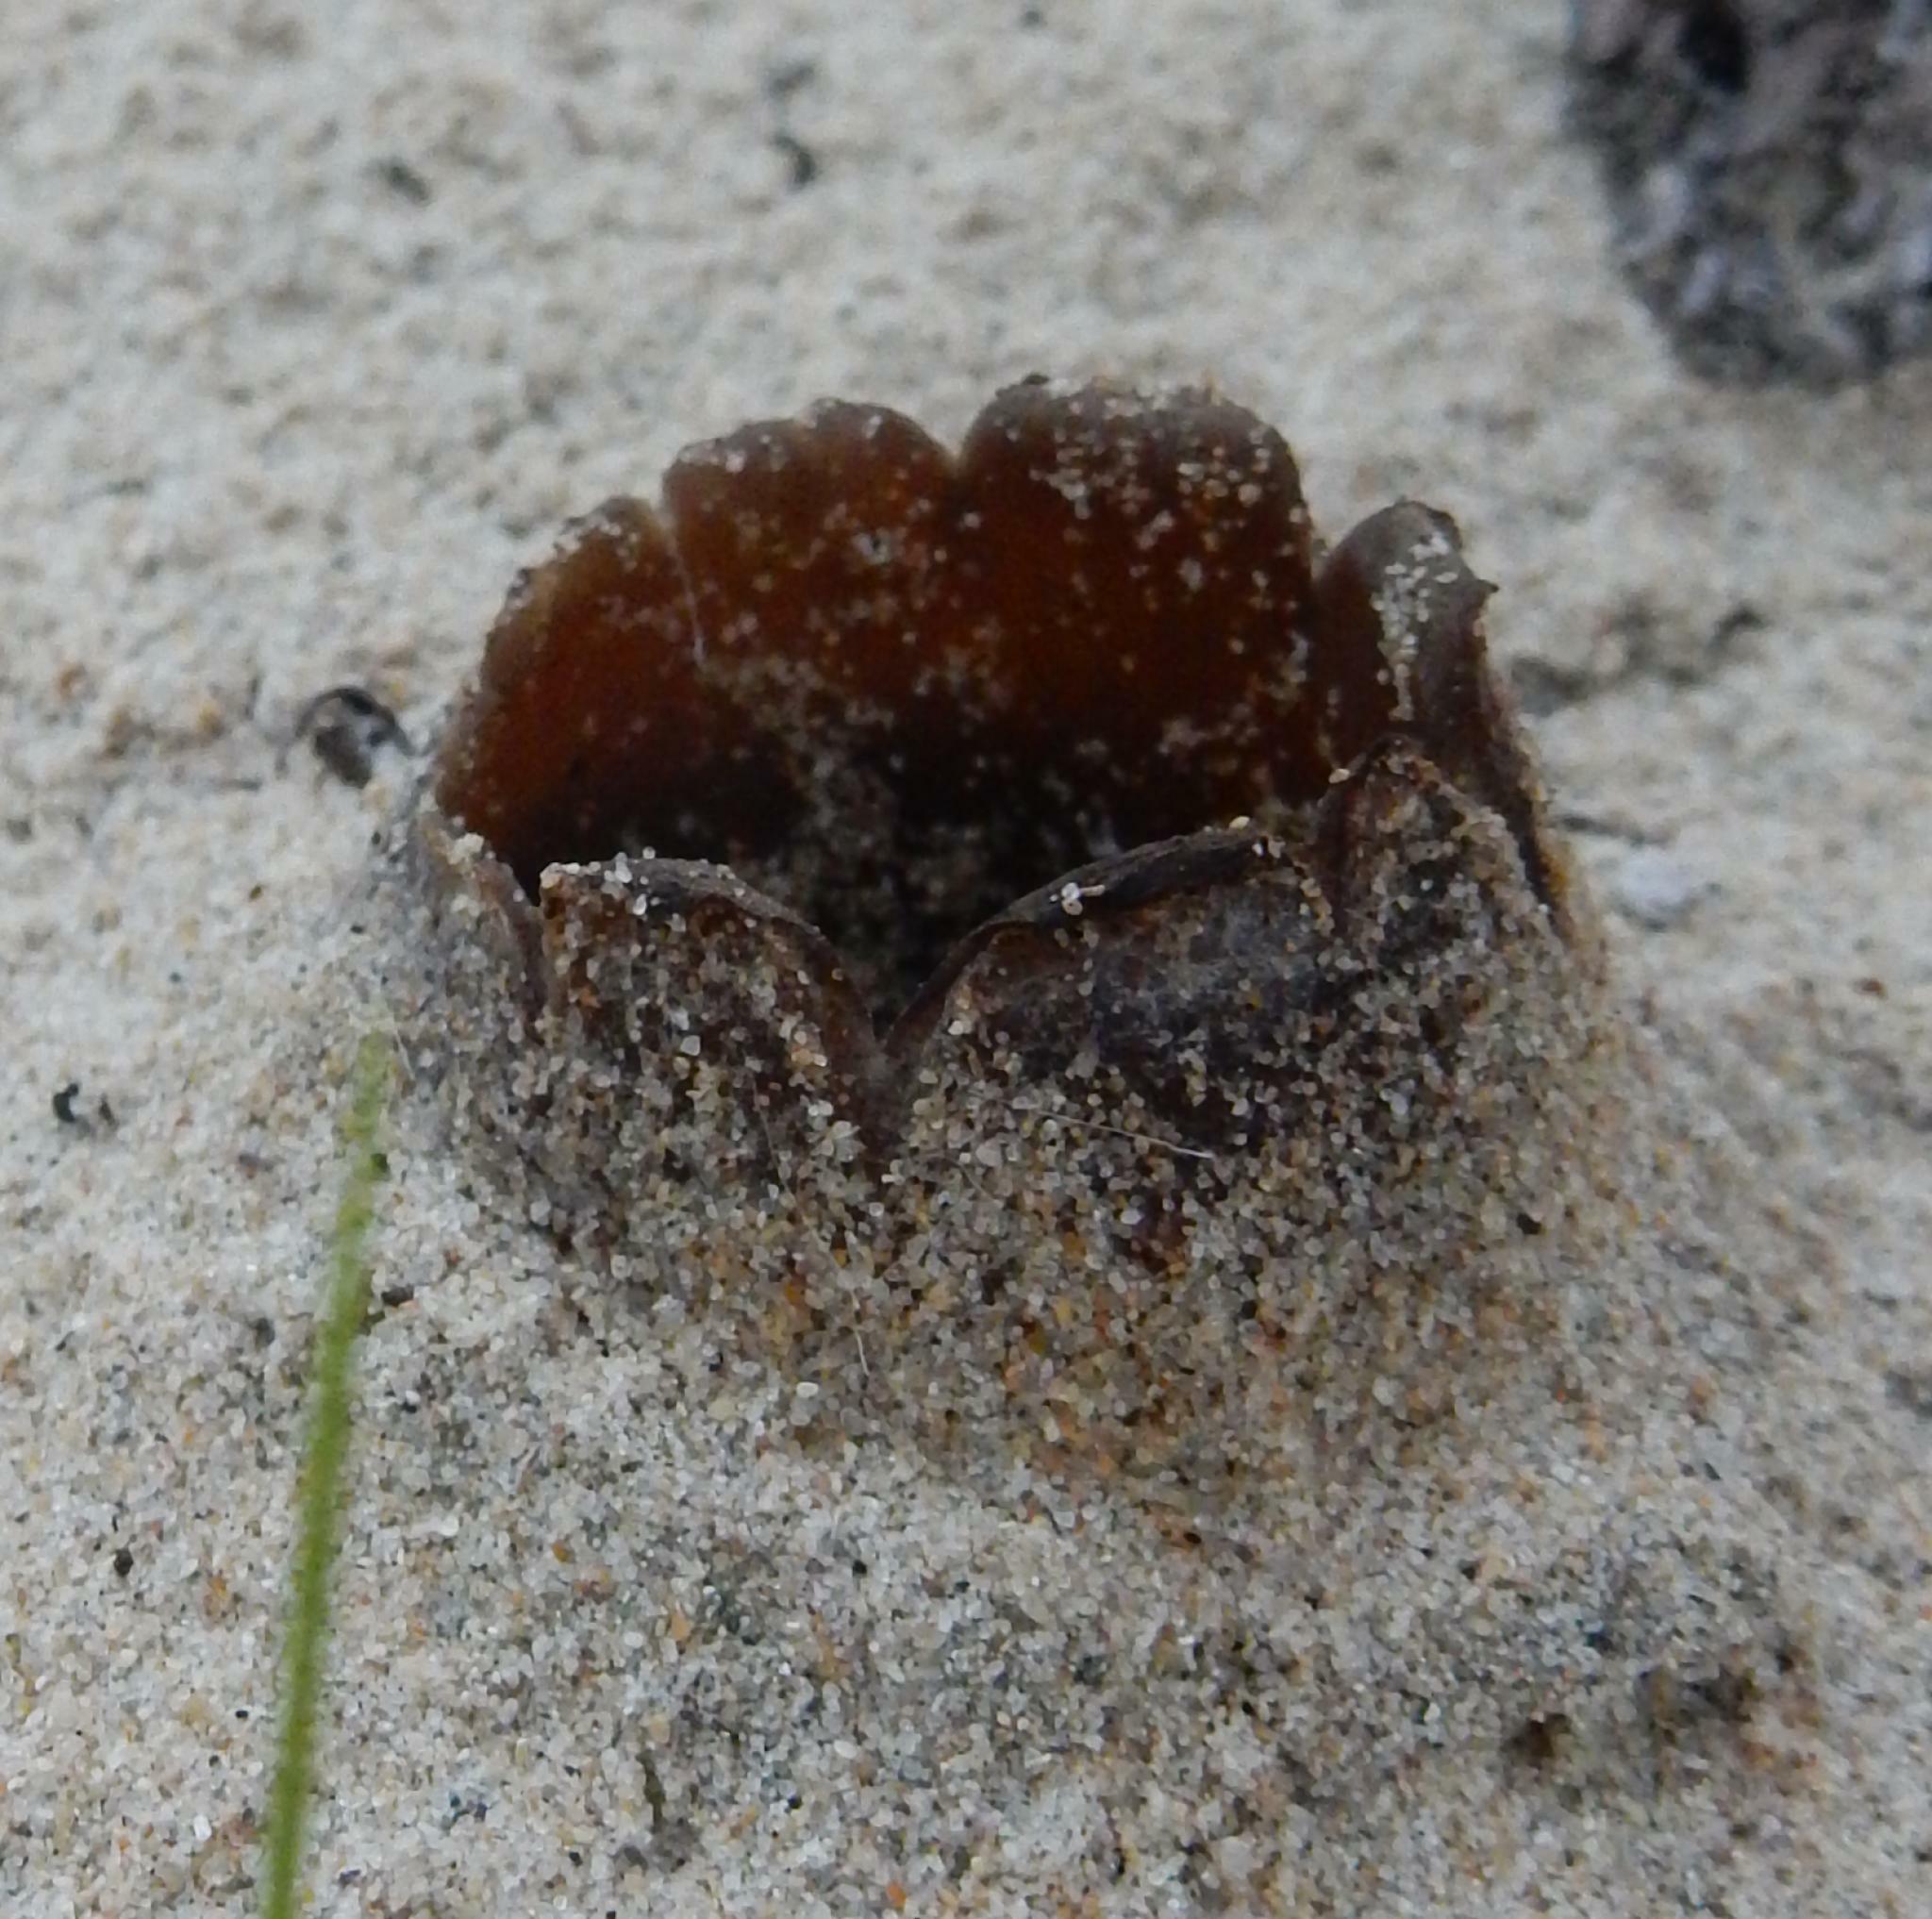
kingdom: Fungi
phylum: Ascomycota
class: Pezizomycetes
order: Pezizales
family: Pezizaceae
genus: Peziza
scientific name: Peziza ammophila
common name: Dune cup
